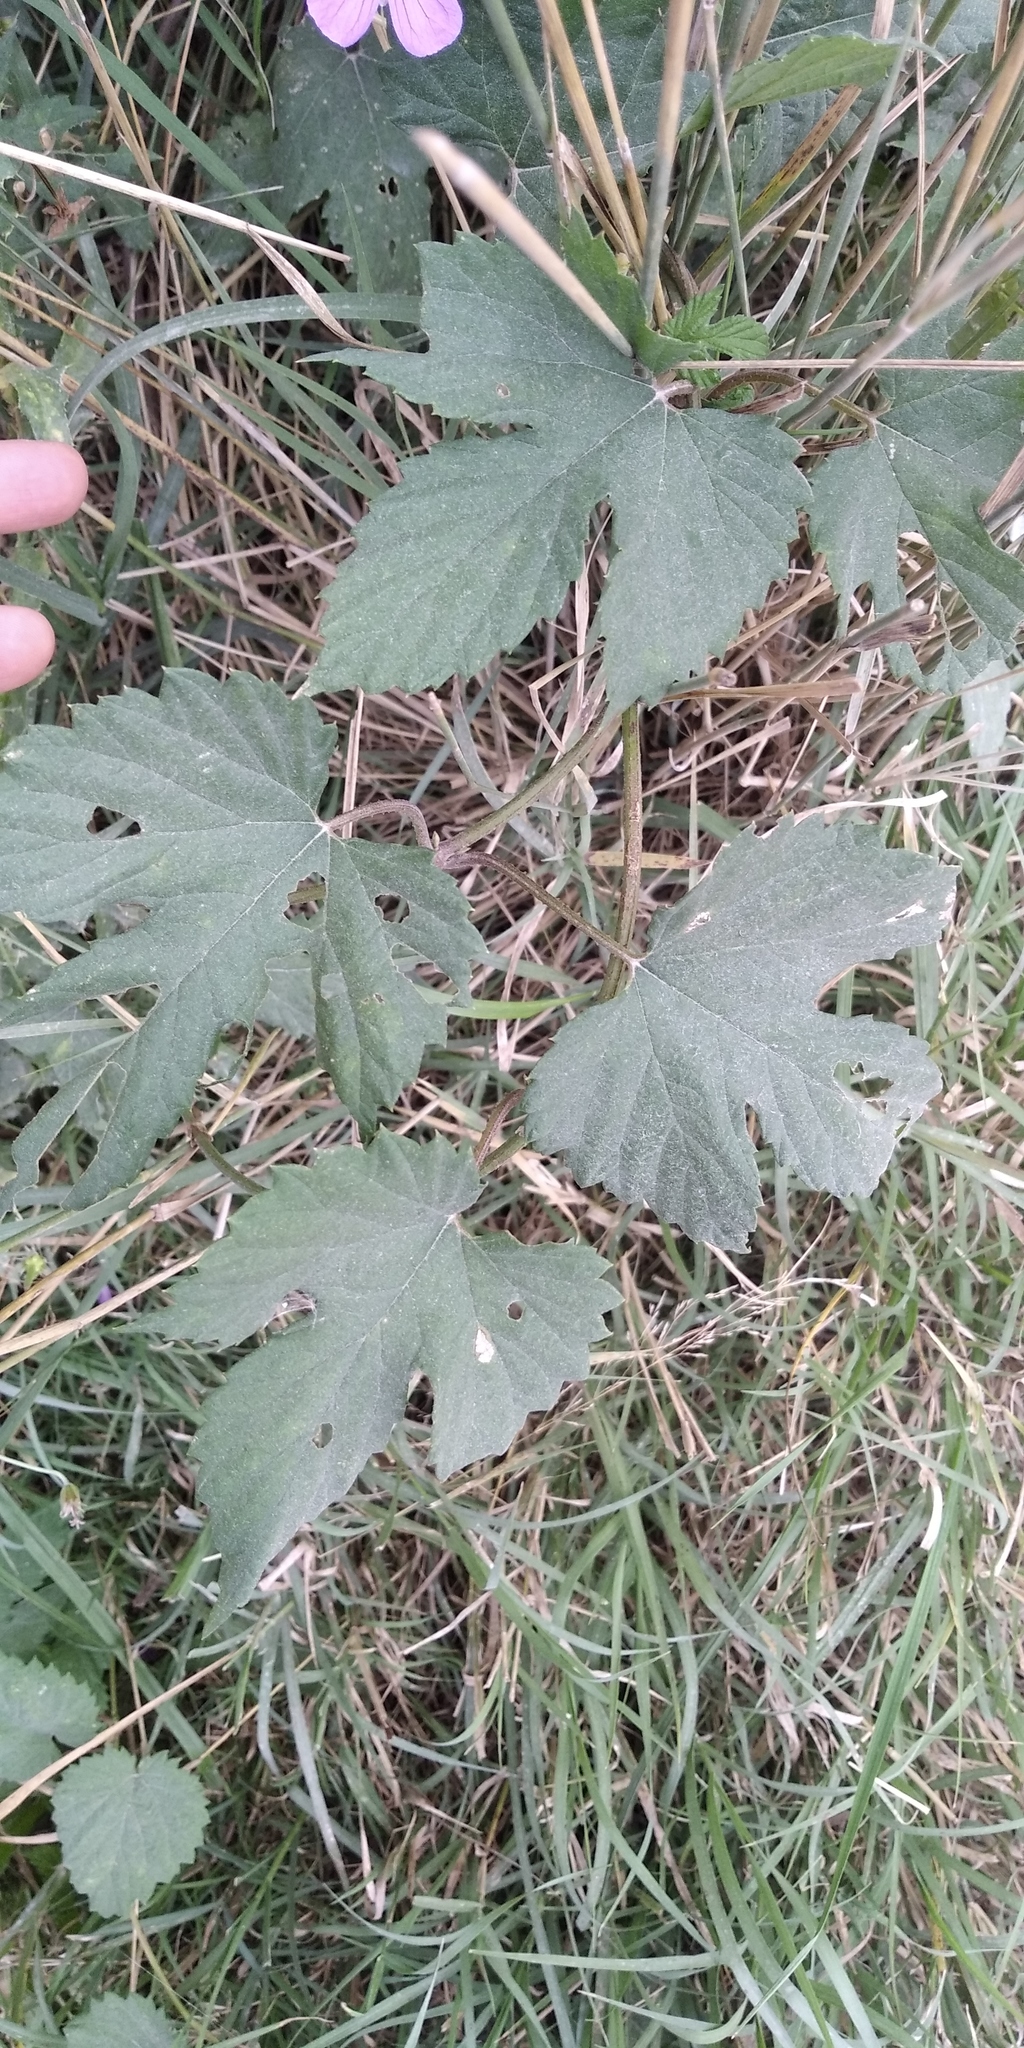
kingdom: Plantae
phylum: Tracheophyta
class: Magnoliopsida
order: Rosales
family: Cannabaceae
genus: Humulus
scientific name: Humulus lupulus
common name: Hop
